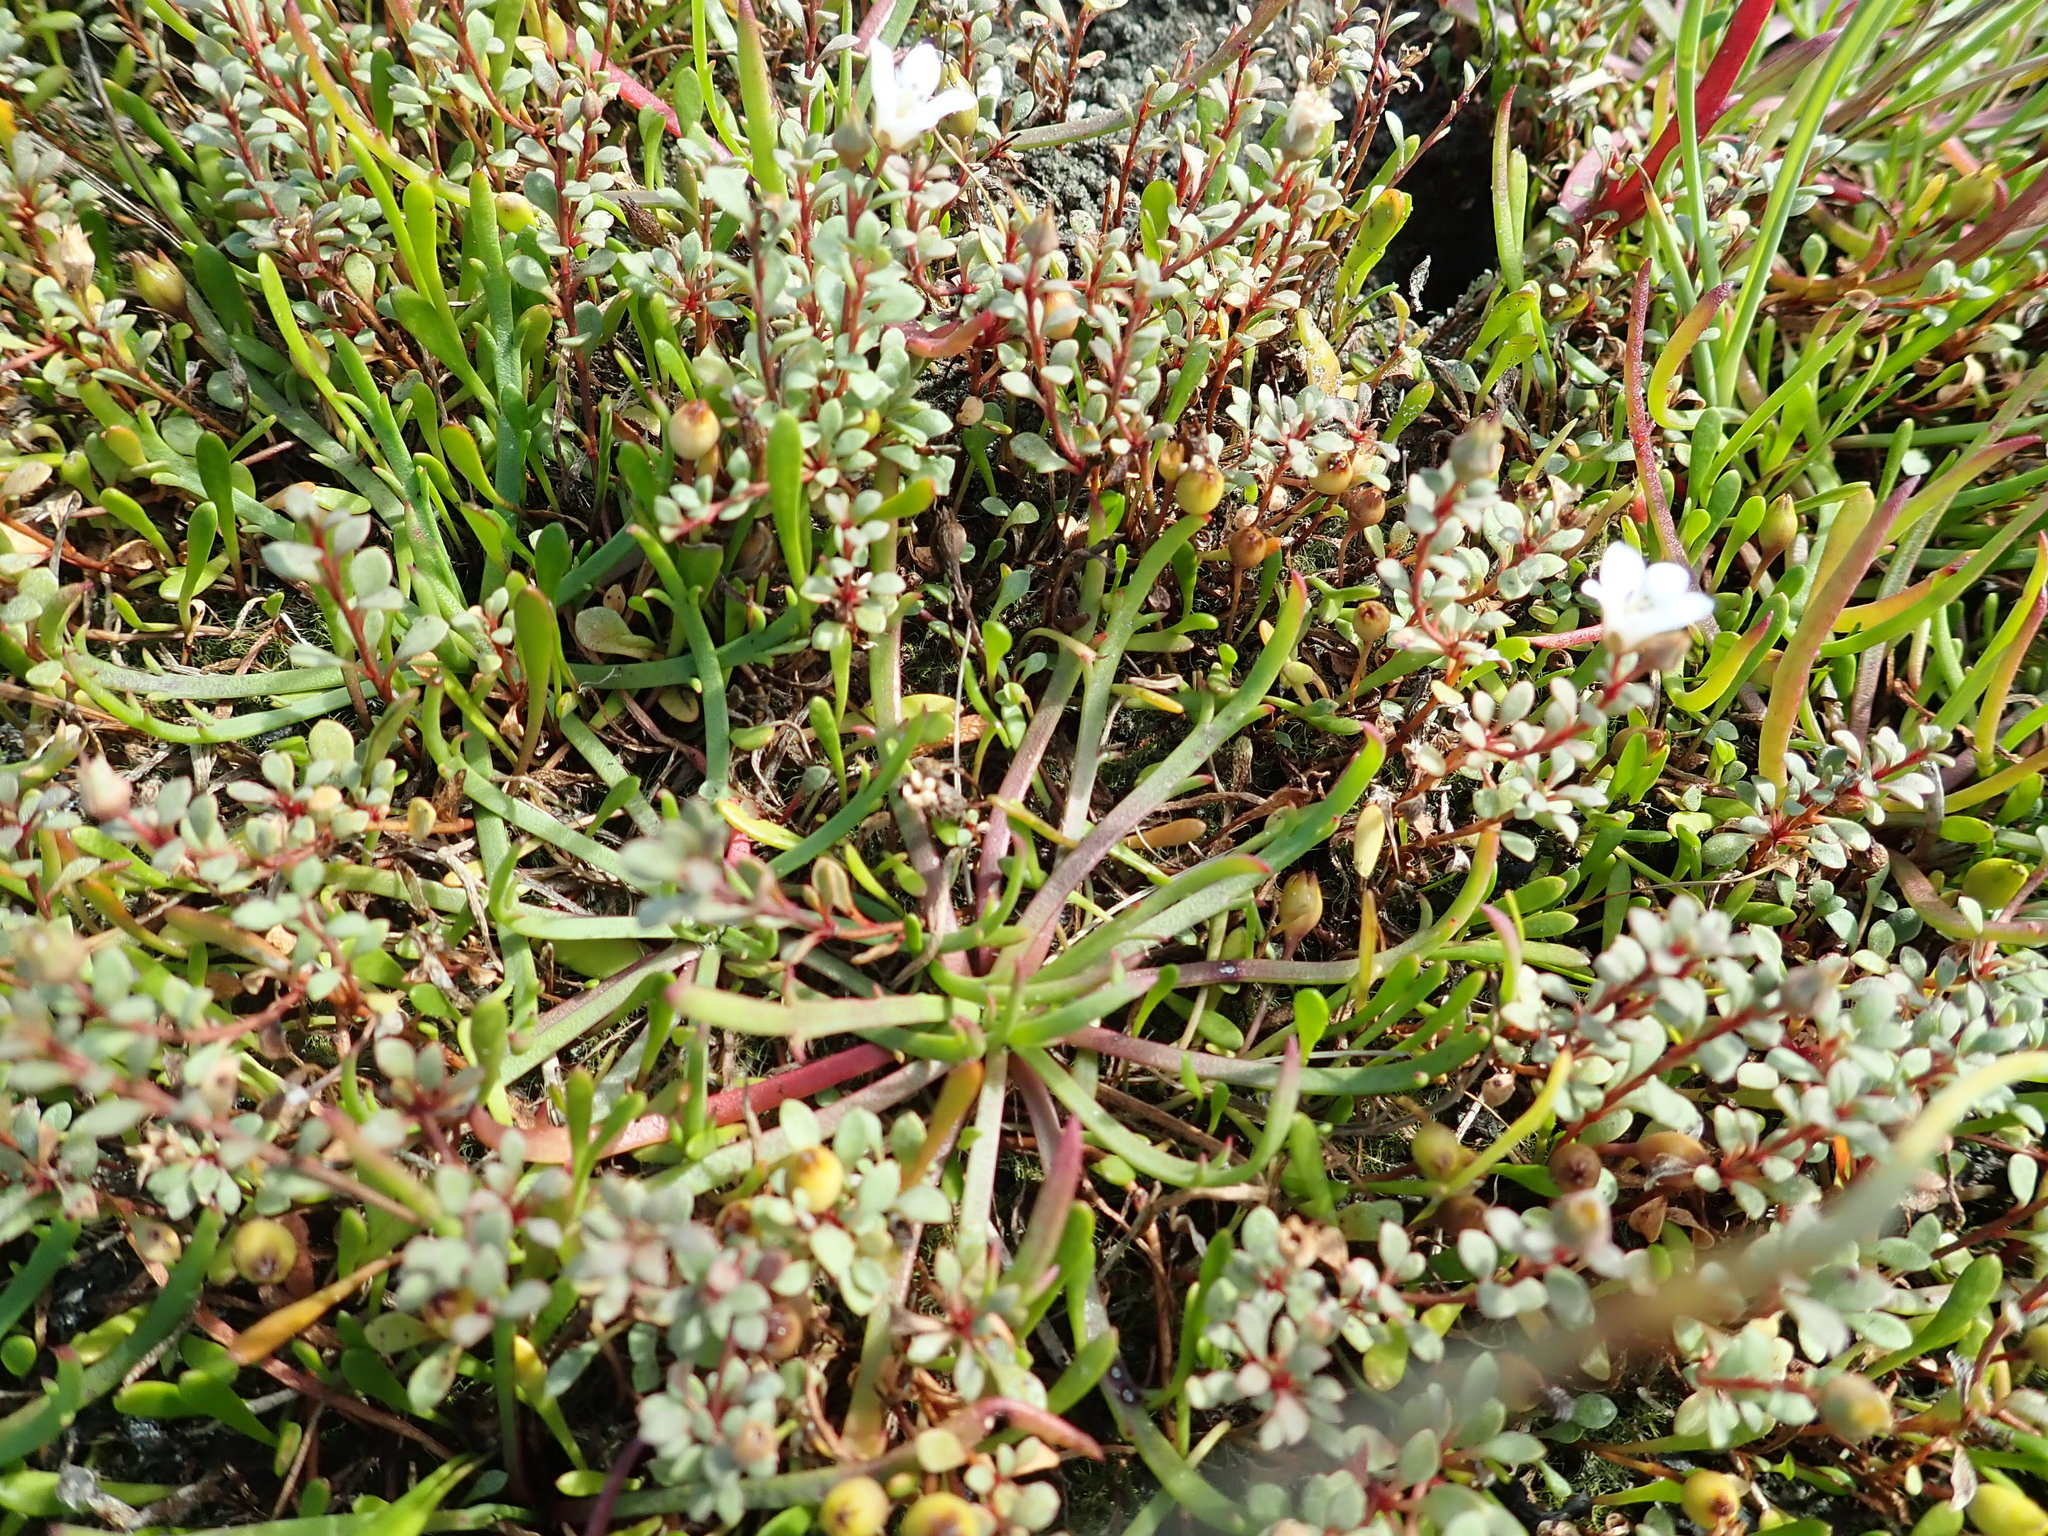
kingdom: Plantae
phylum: Tracheophyta
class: Magnoliopsida
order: Lamiales
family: Plantaginaceae
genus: Plantago
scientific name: Plantago coronopus
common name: Buck's-horn plantain
